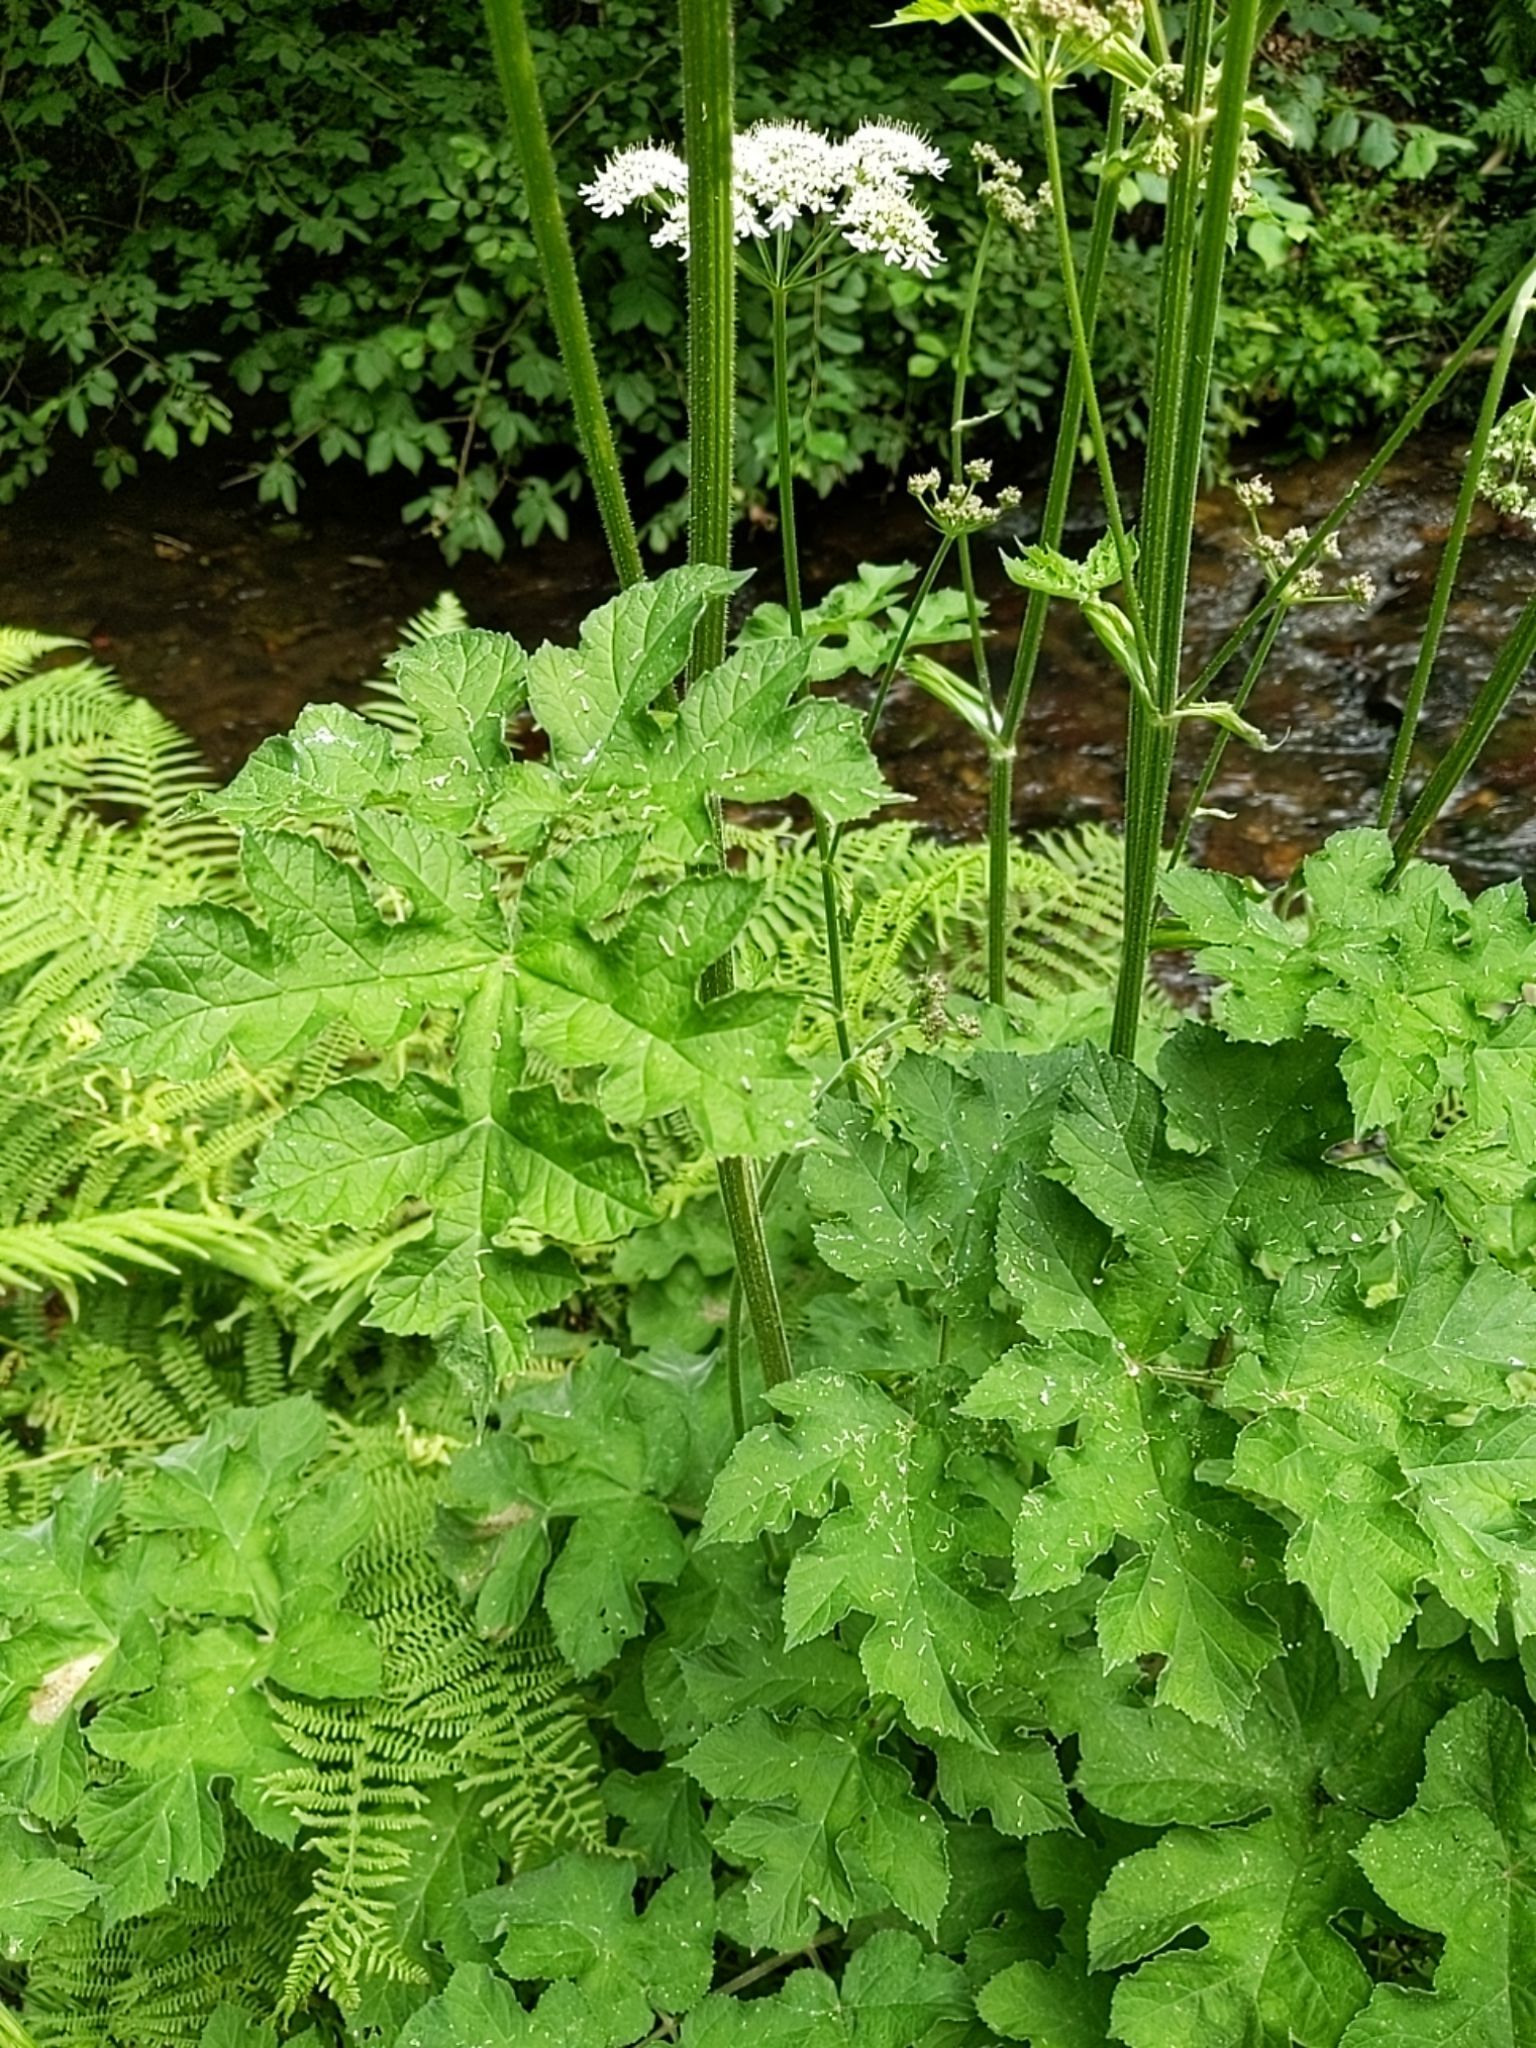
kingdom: Plantae
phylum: Tracheophyta
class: Magnoliopsida
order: Apiales
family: Apiaceae
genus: Heracleum
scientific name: Heracleum sphondylium
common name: Hogweed
